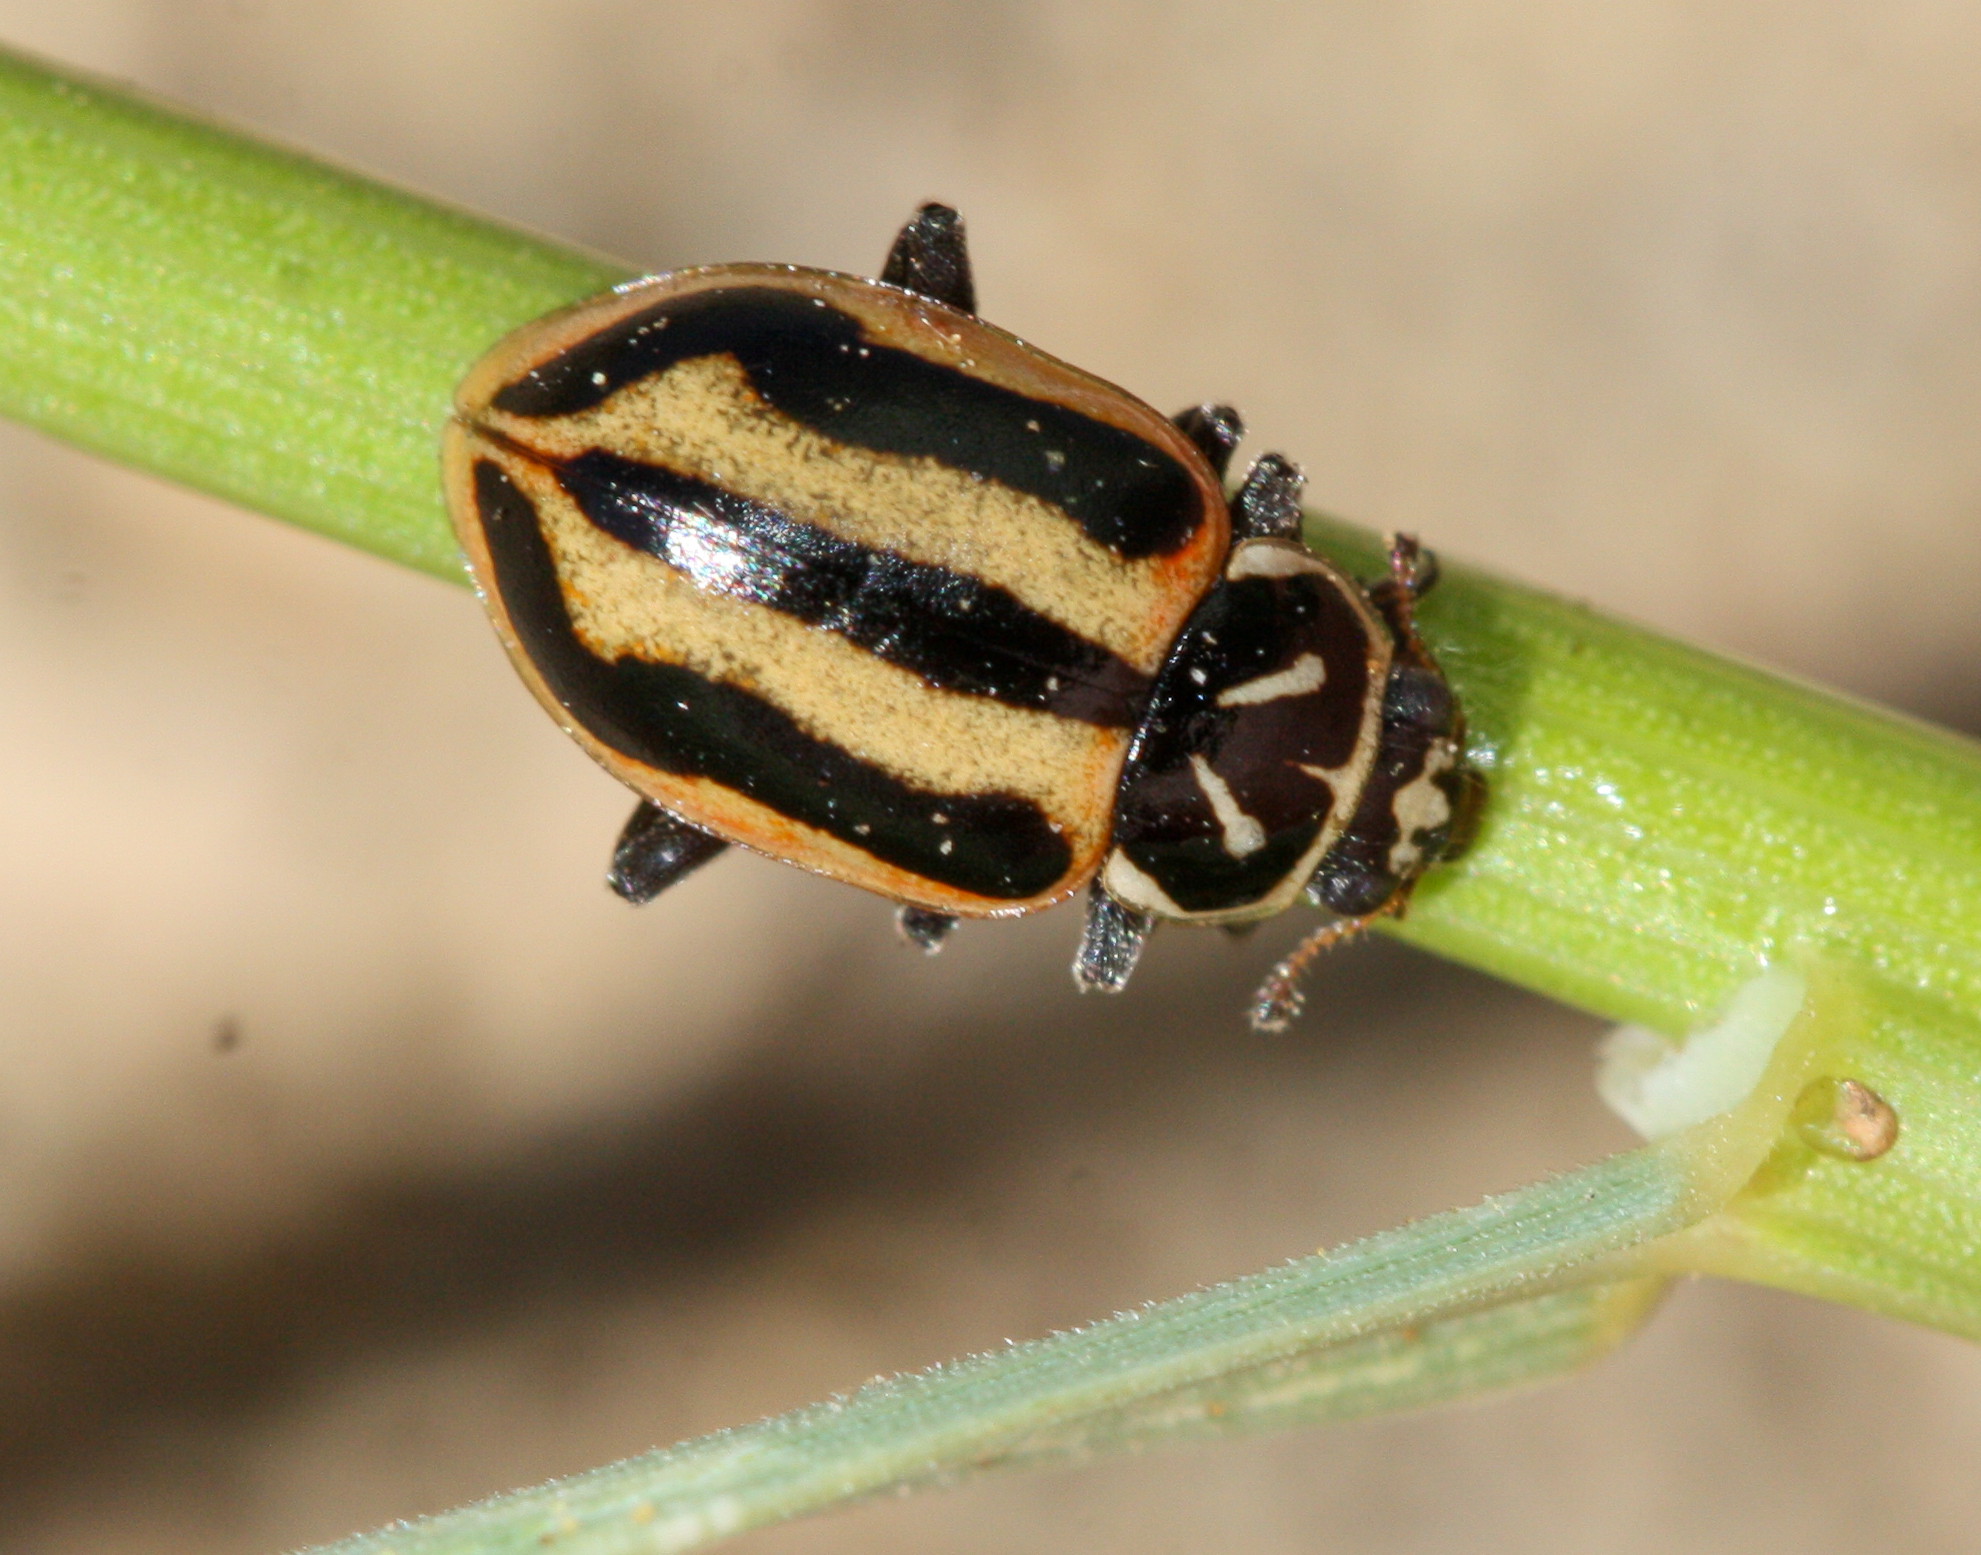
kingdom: Animalia
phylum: Arthropoda
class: Insecta
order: Coleoptera
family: Coccinellidae
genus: Hippodamia
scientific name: Hippodamia sinuata
